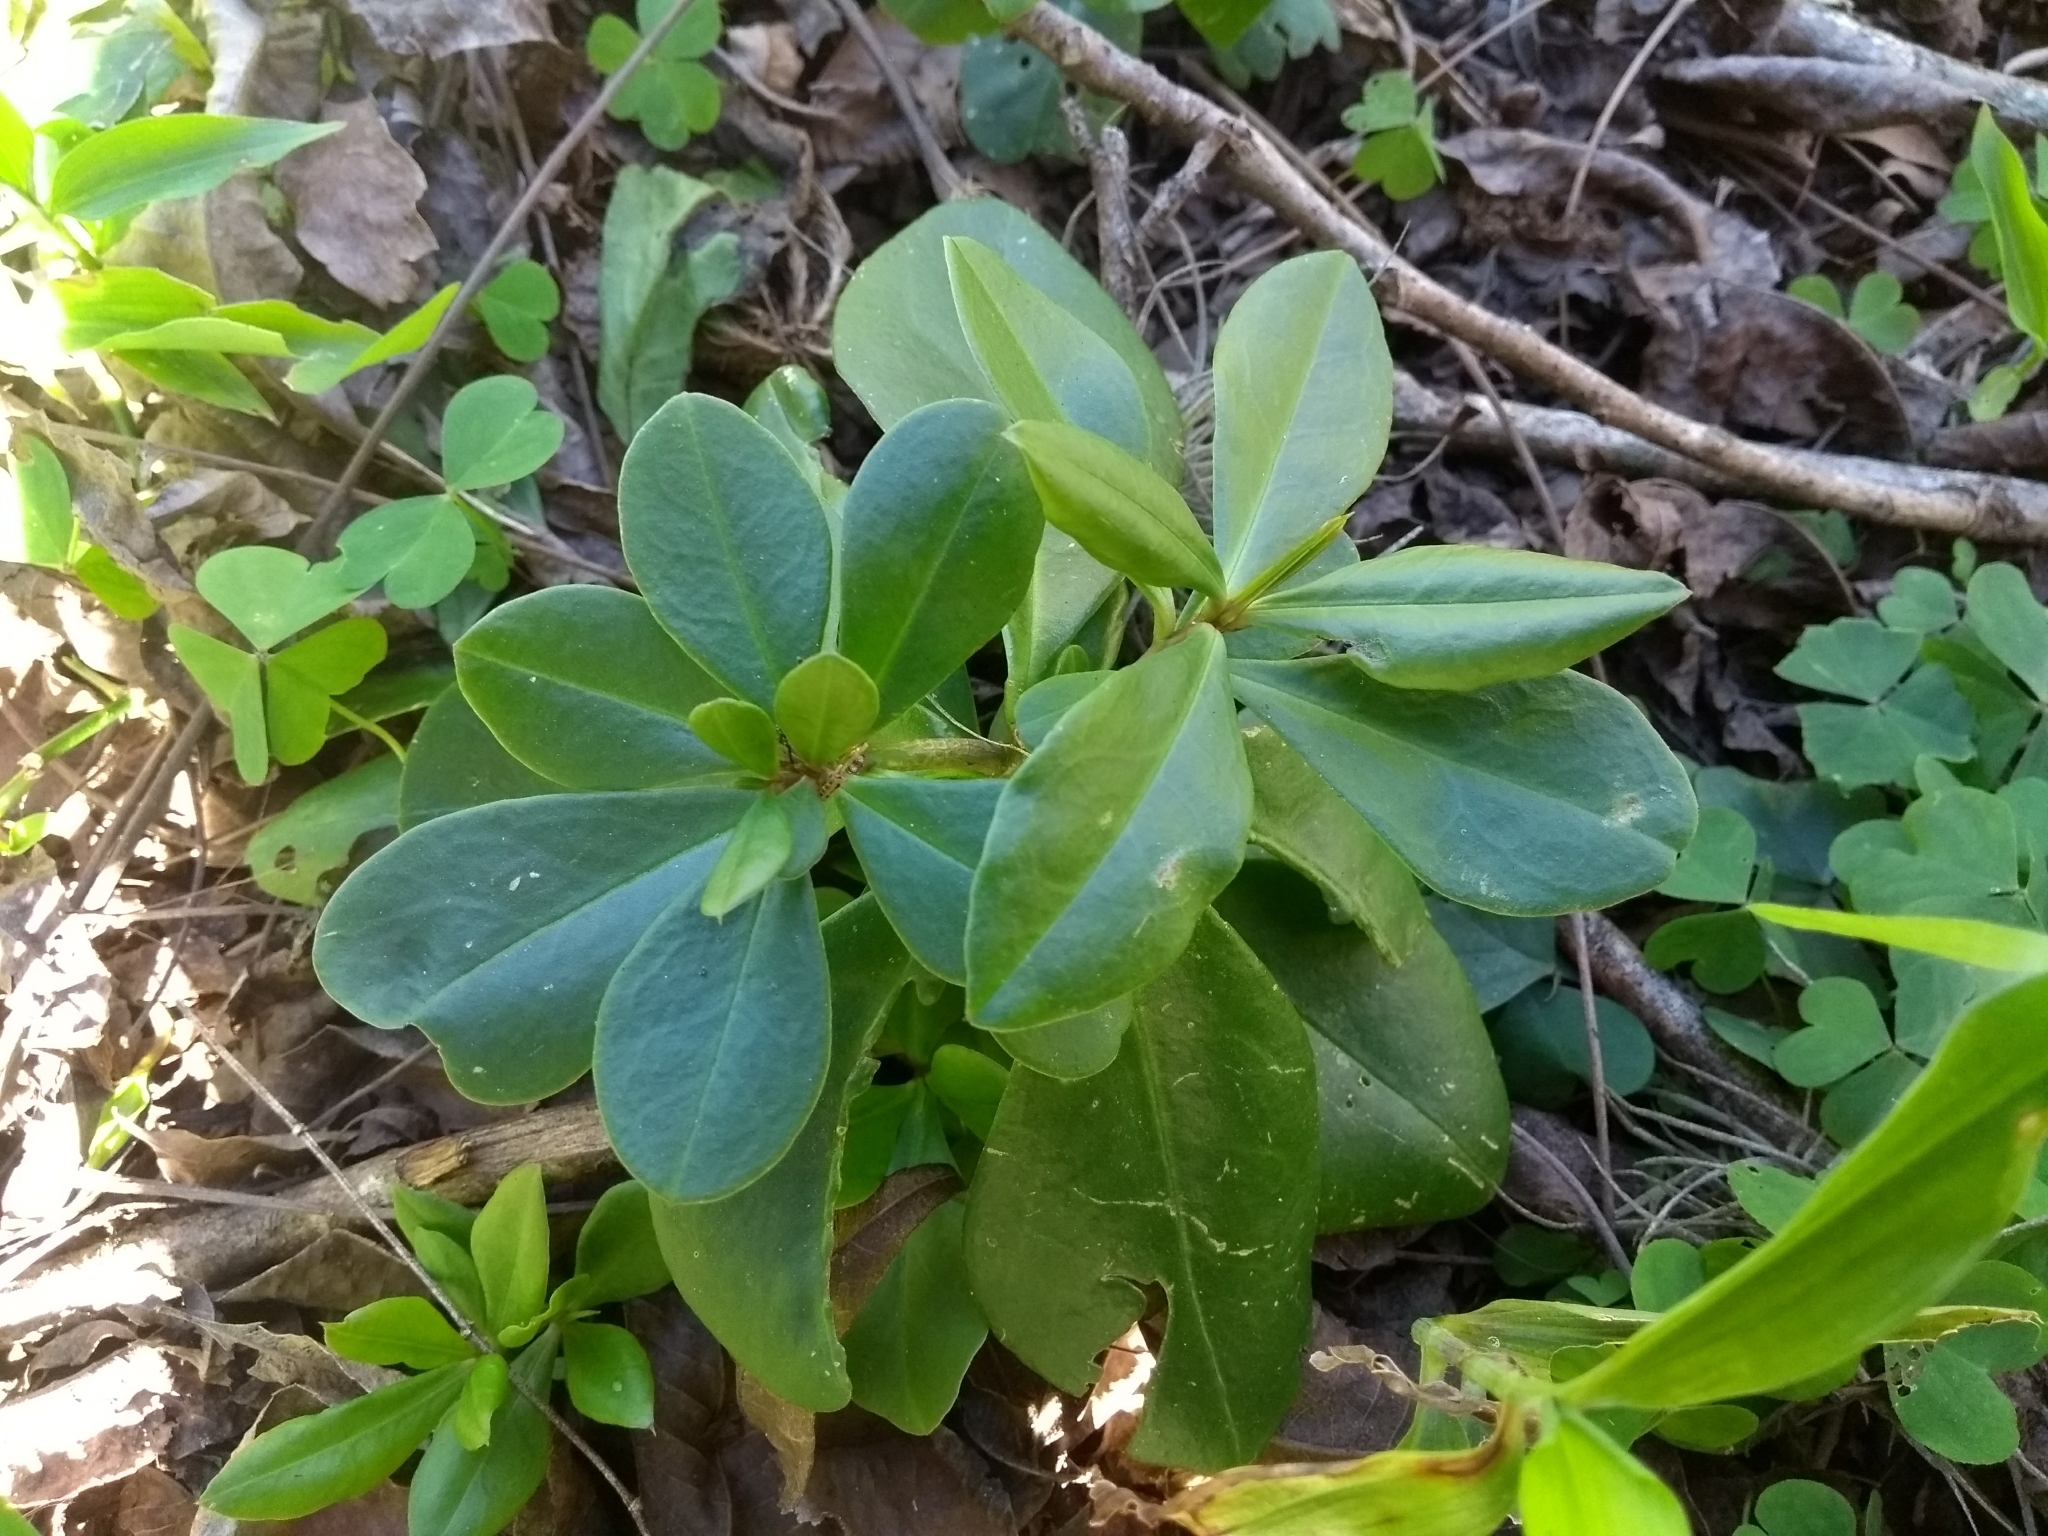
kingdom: Plantae
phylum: Tracheophyta
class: Magnoliopsida
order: Caryophyllales
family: Talinaceae
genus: Talinum
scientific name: Talinum paniculatum
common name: Jewels of opar
